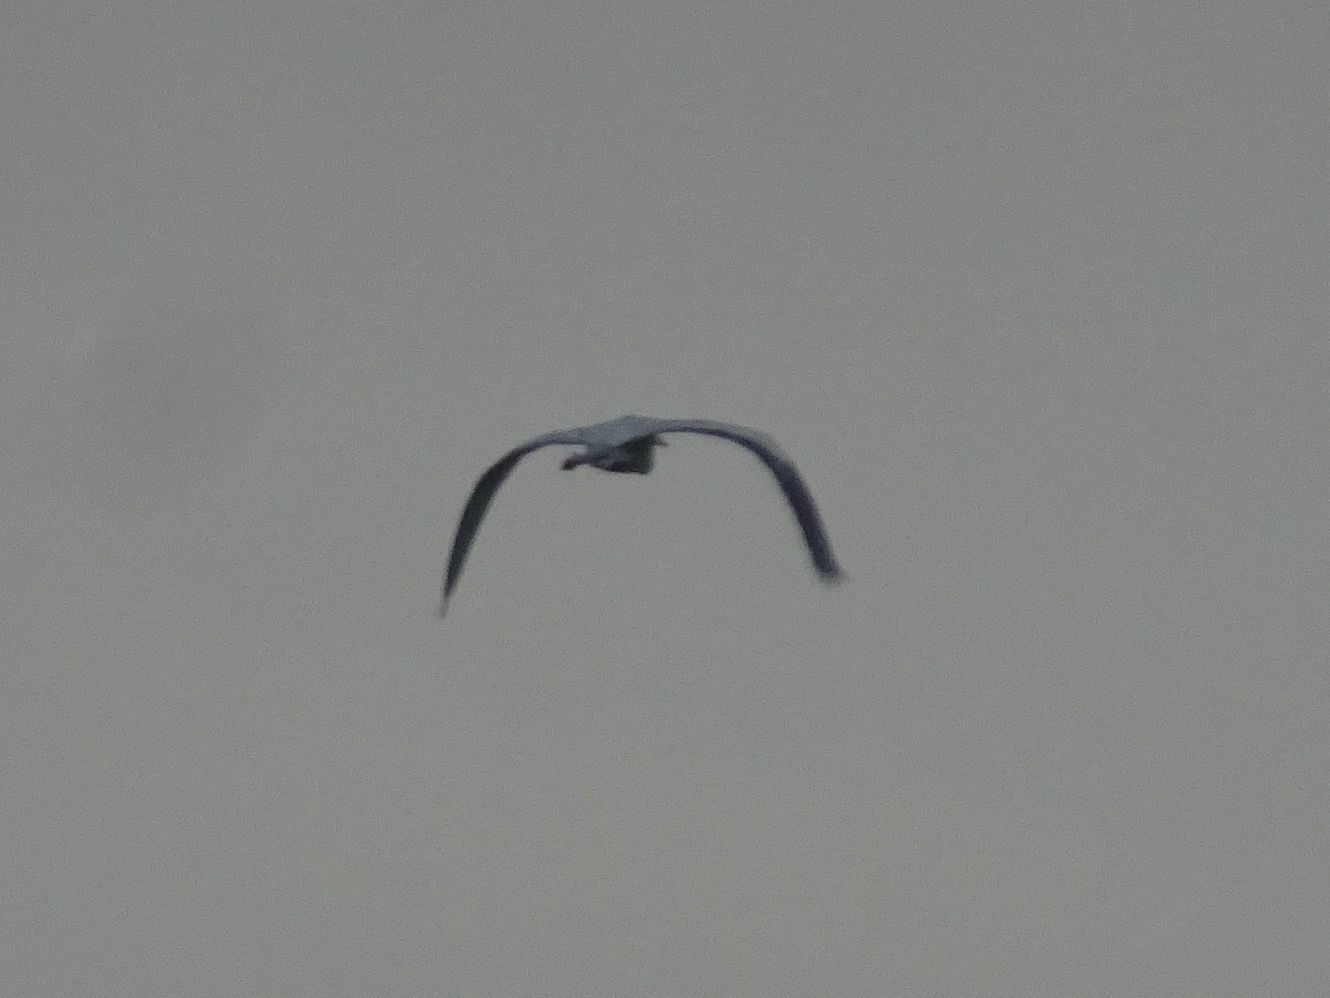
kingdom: Animalia
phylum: Chordata
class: Aves
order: Pelecaniformes
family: Ardeidae
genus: Ardea
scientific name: Ardea cinerea
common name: Grey heron
